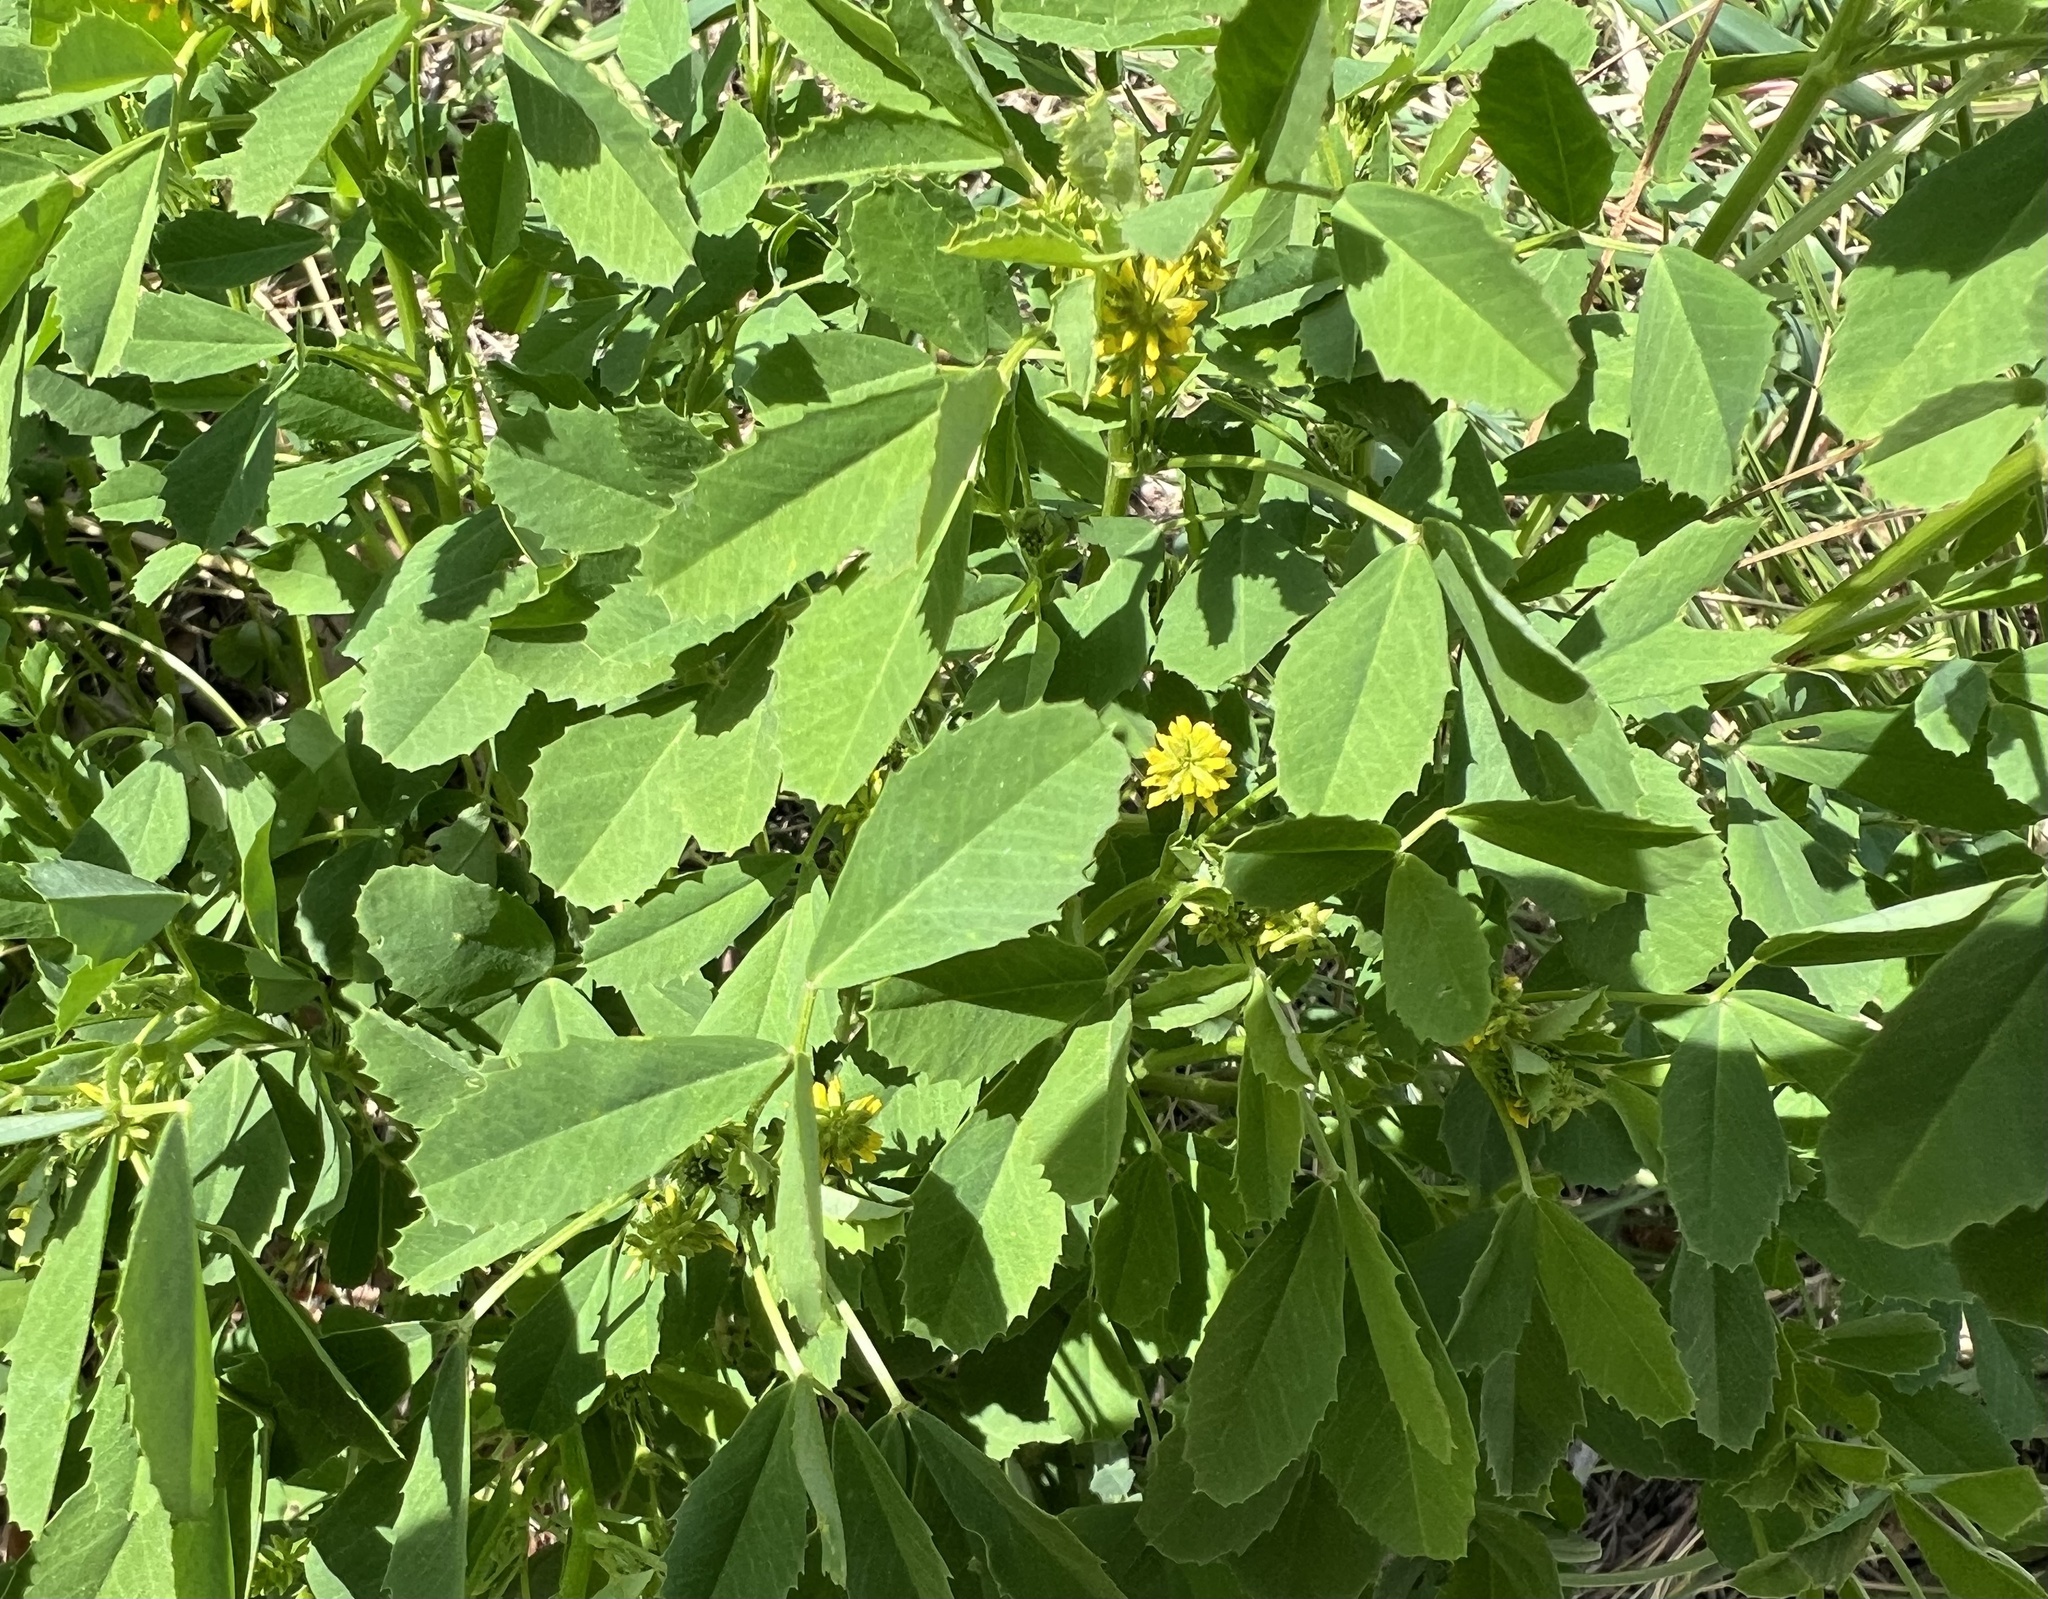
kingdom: Plantae
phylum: Tracheophyta
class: Magnoliopsida
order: Fabales
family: Fabaceae
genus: Melilotus
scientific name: Melilotus indicus
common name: Small melilot
